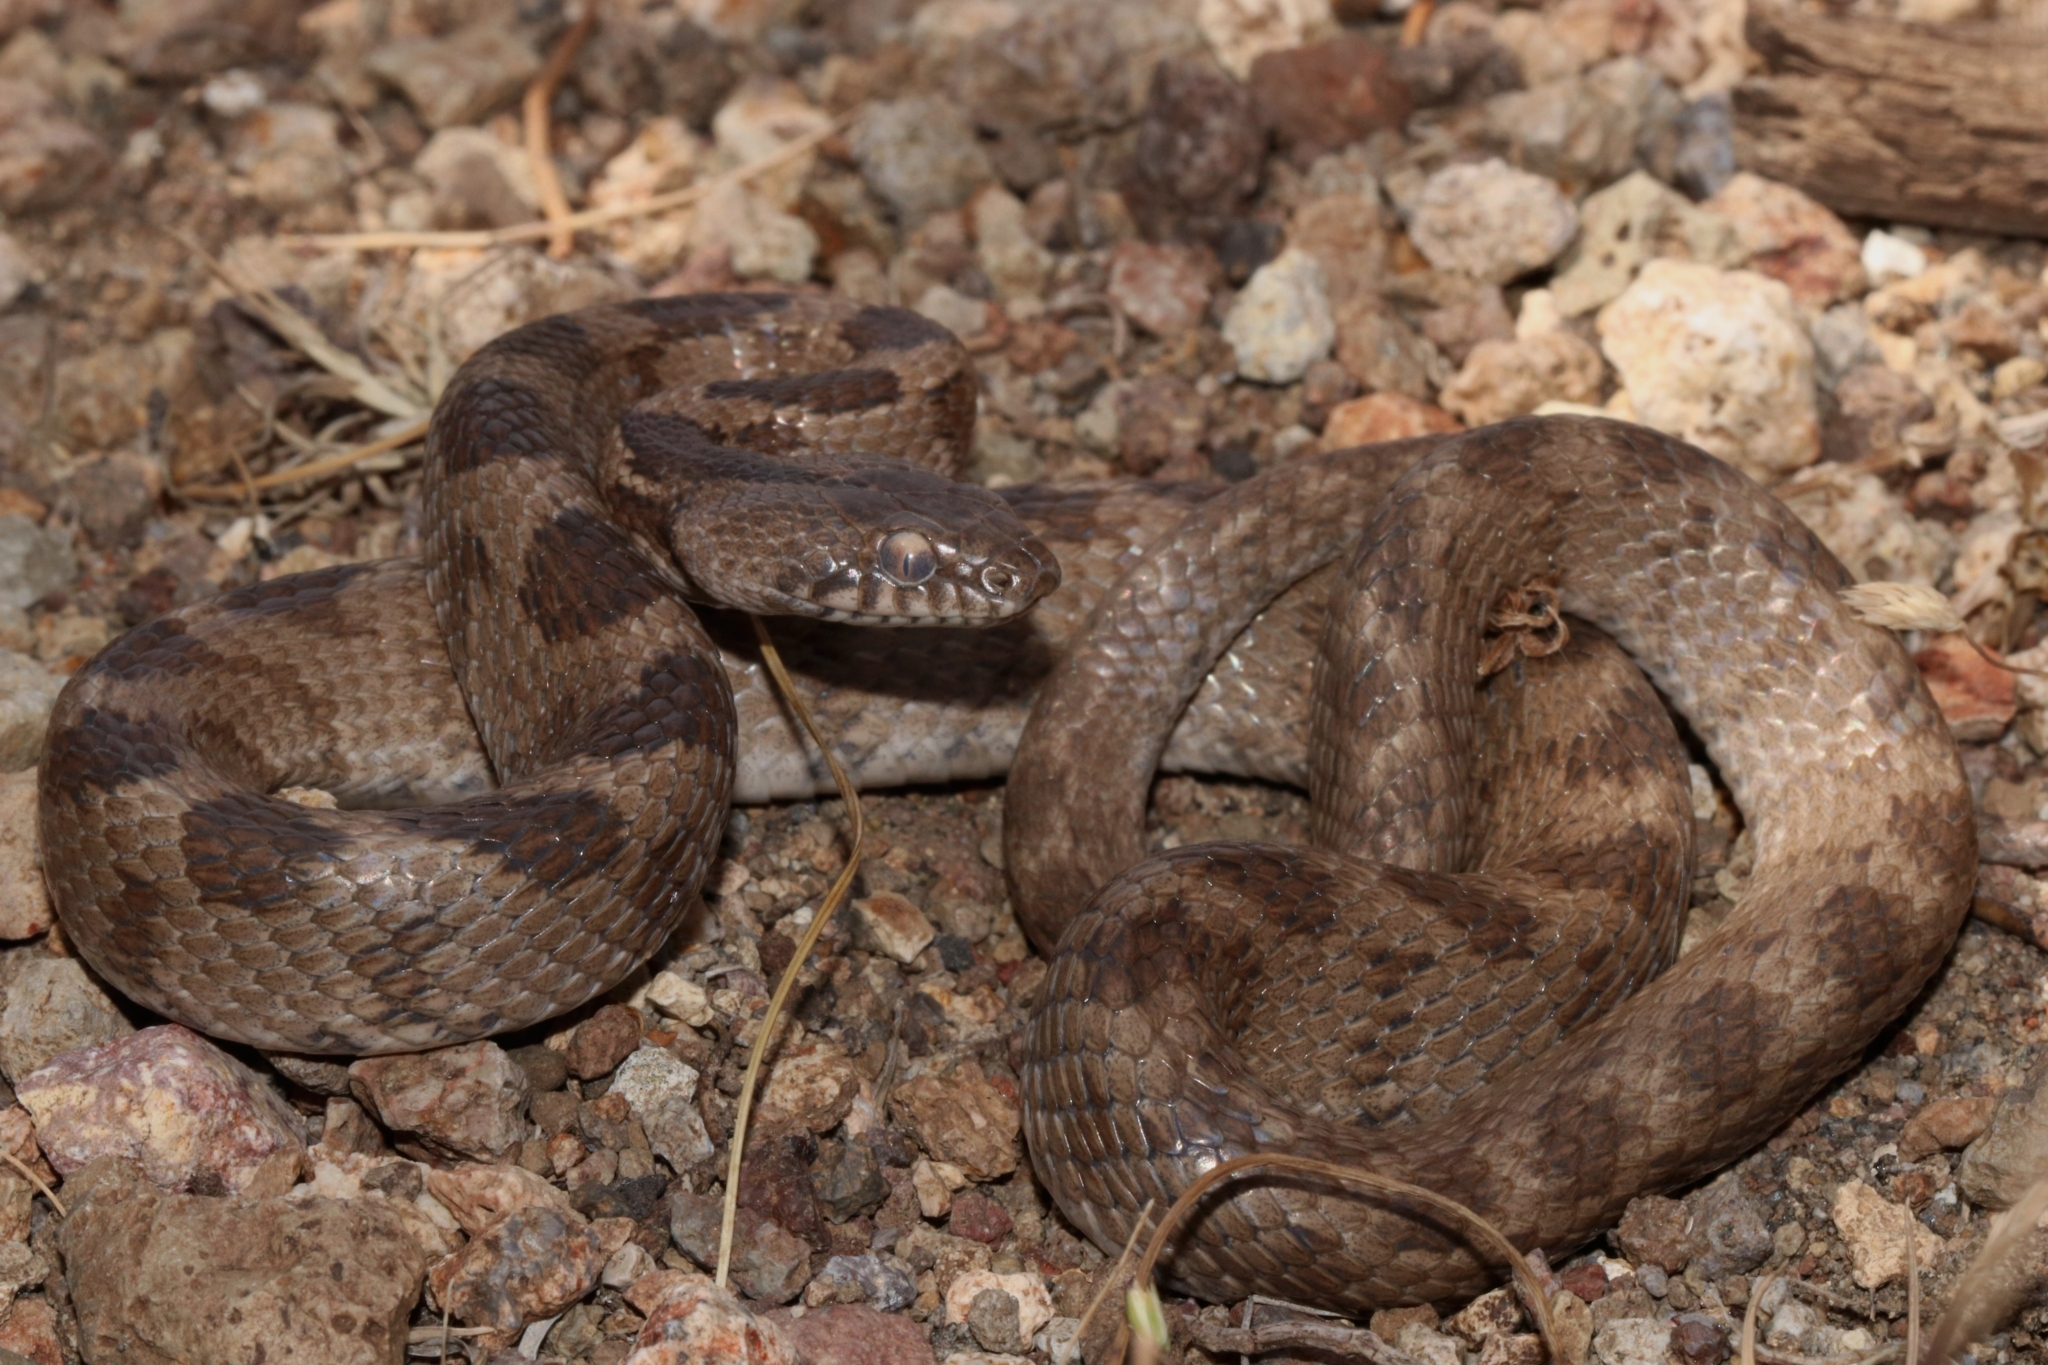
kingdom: Animalia
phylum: Chordata
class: Squamata
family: Colubridae
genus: Telescopus
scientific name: Telescopus fallax
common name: Cat snake
